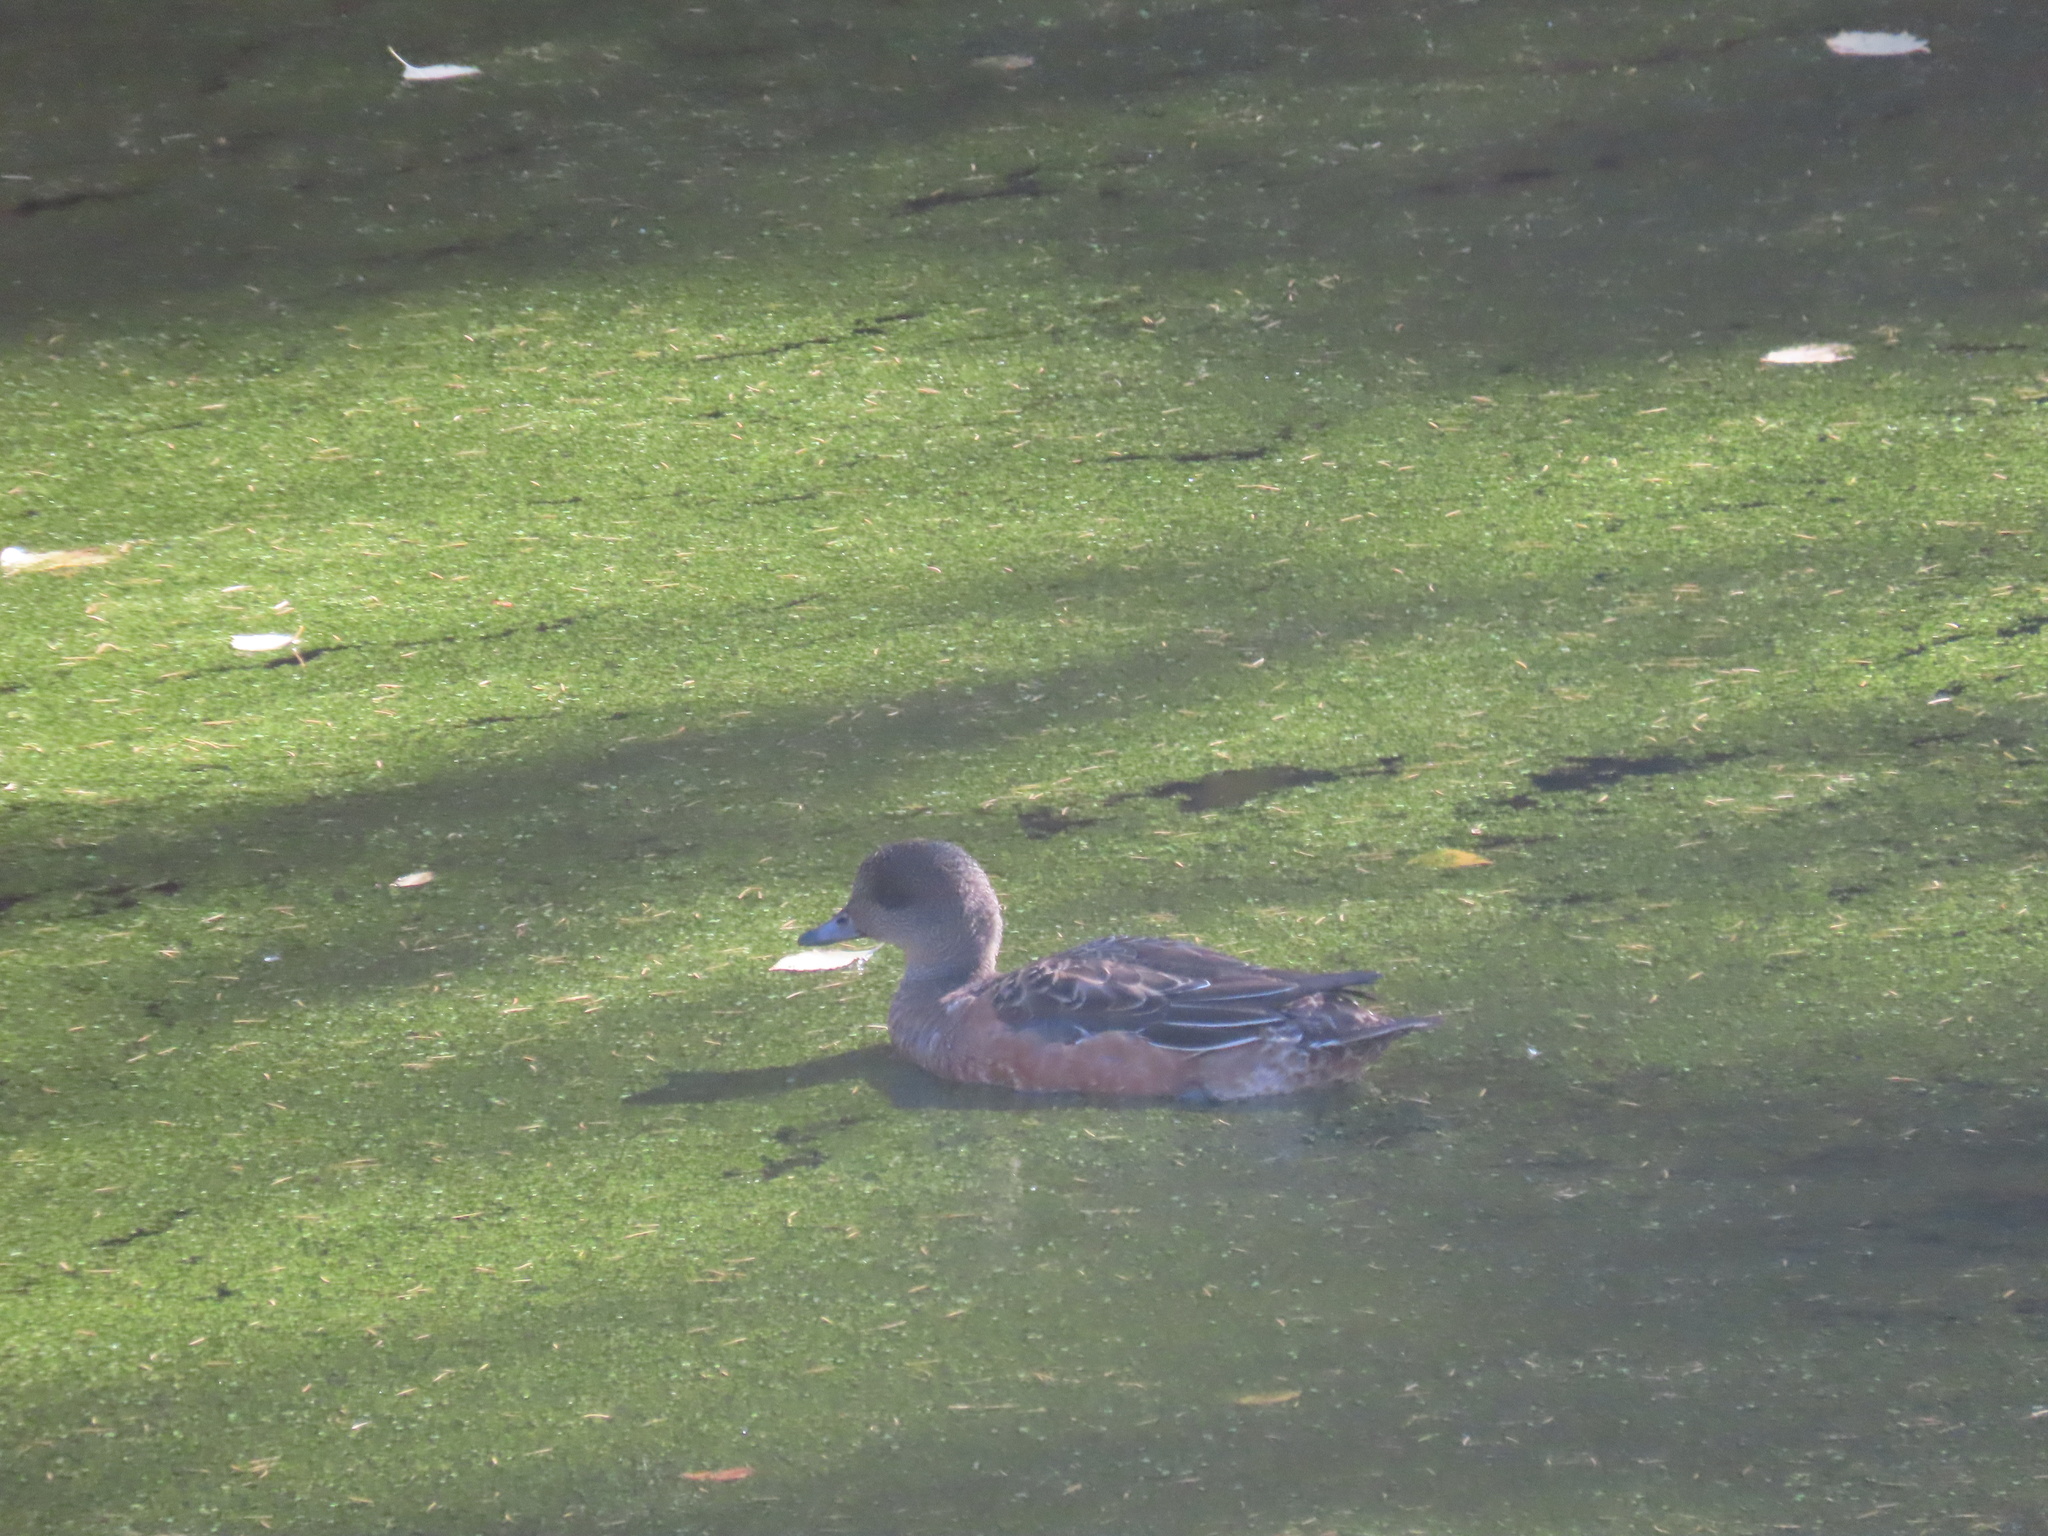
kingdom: Animalia
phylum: Chordata
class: Aves
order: Anseriformes
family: Anatidae
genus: Mareca
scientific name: Mareca americana
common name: American wigeon
